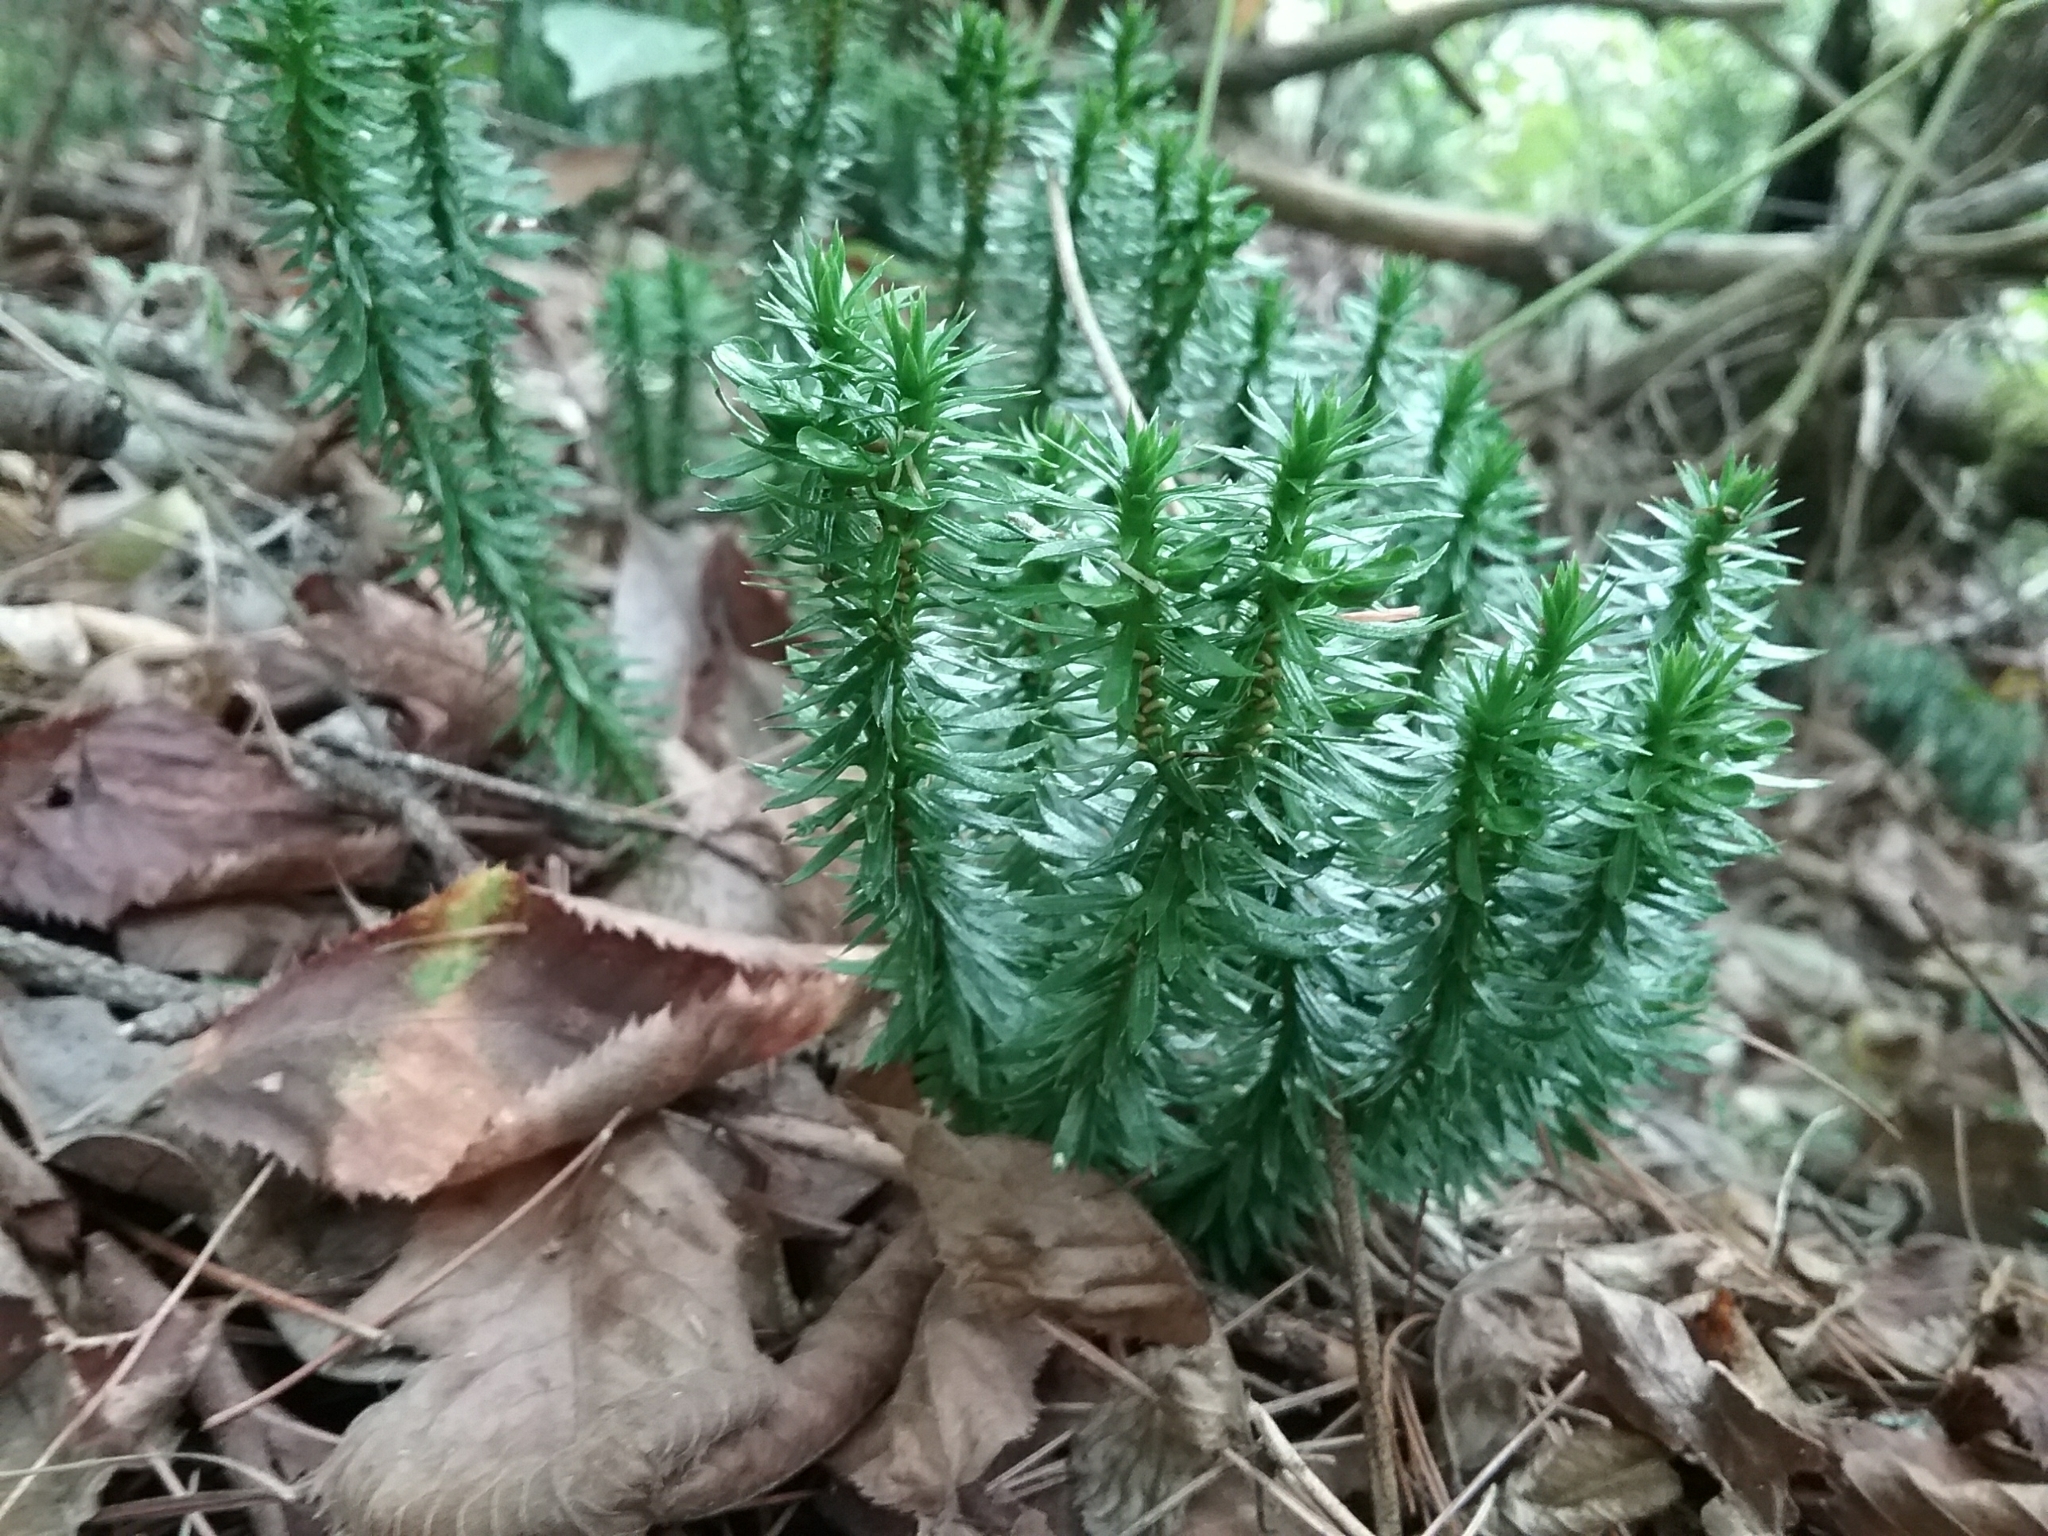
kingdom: Plantae
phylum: Tracheophyta
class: Lycopodiopsida
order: Lycopodiales
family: Lycopodiaceae
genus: Huperzia
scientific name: Huperzia lucidula
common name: Shining clubmoss
